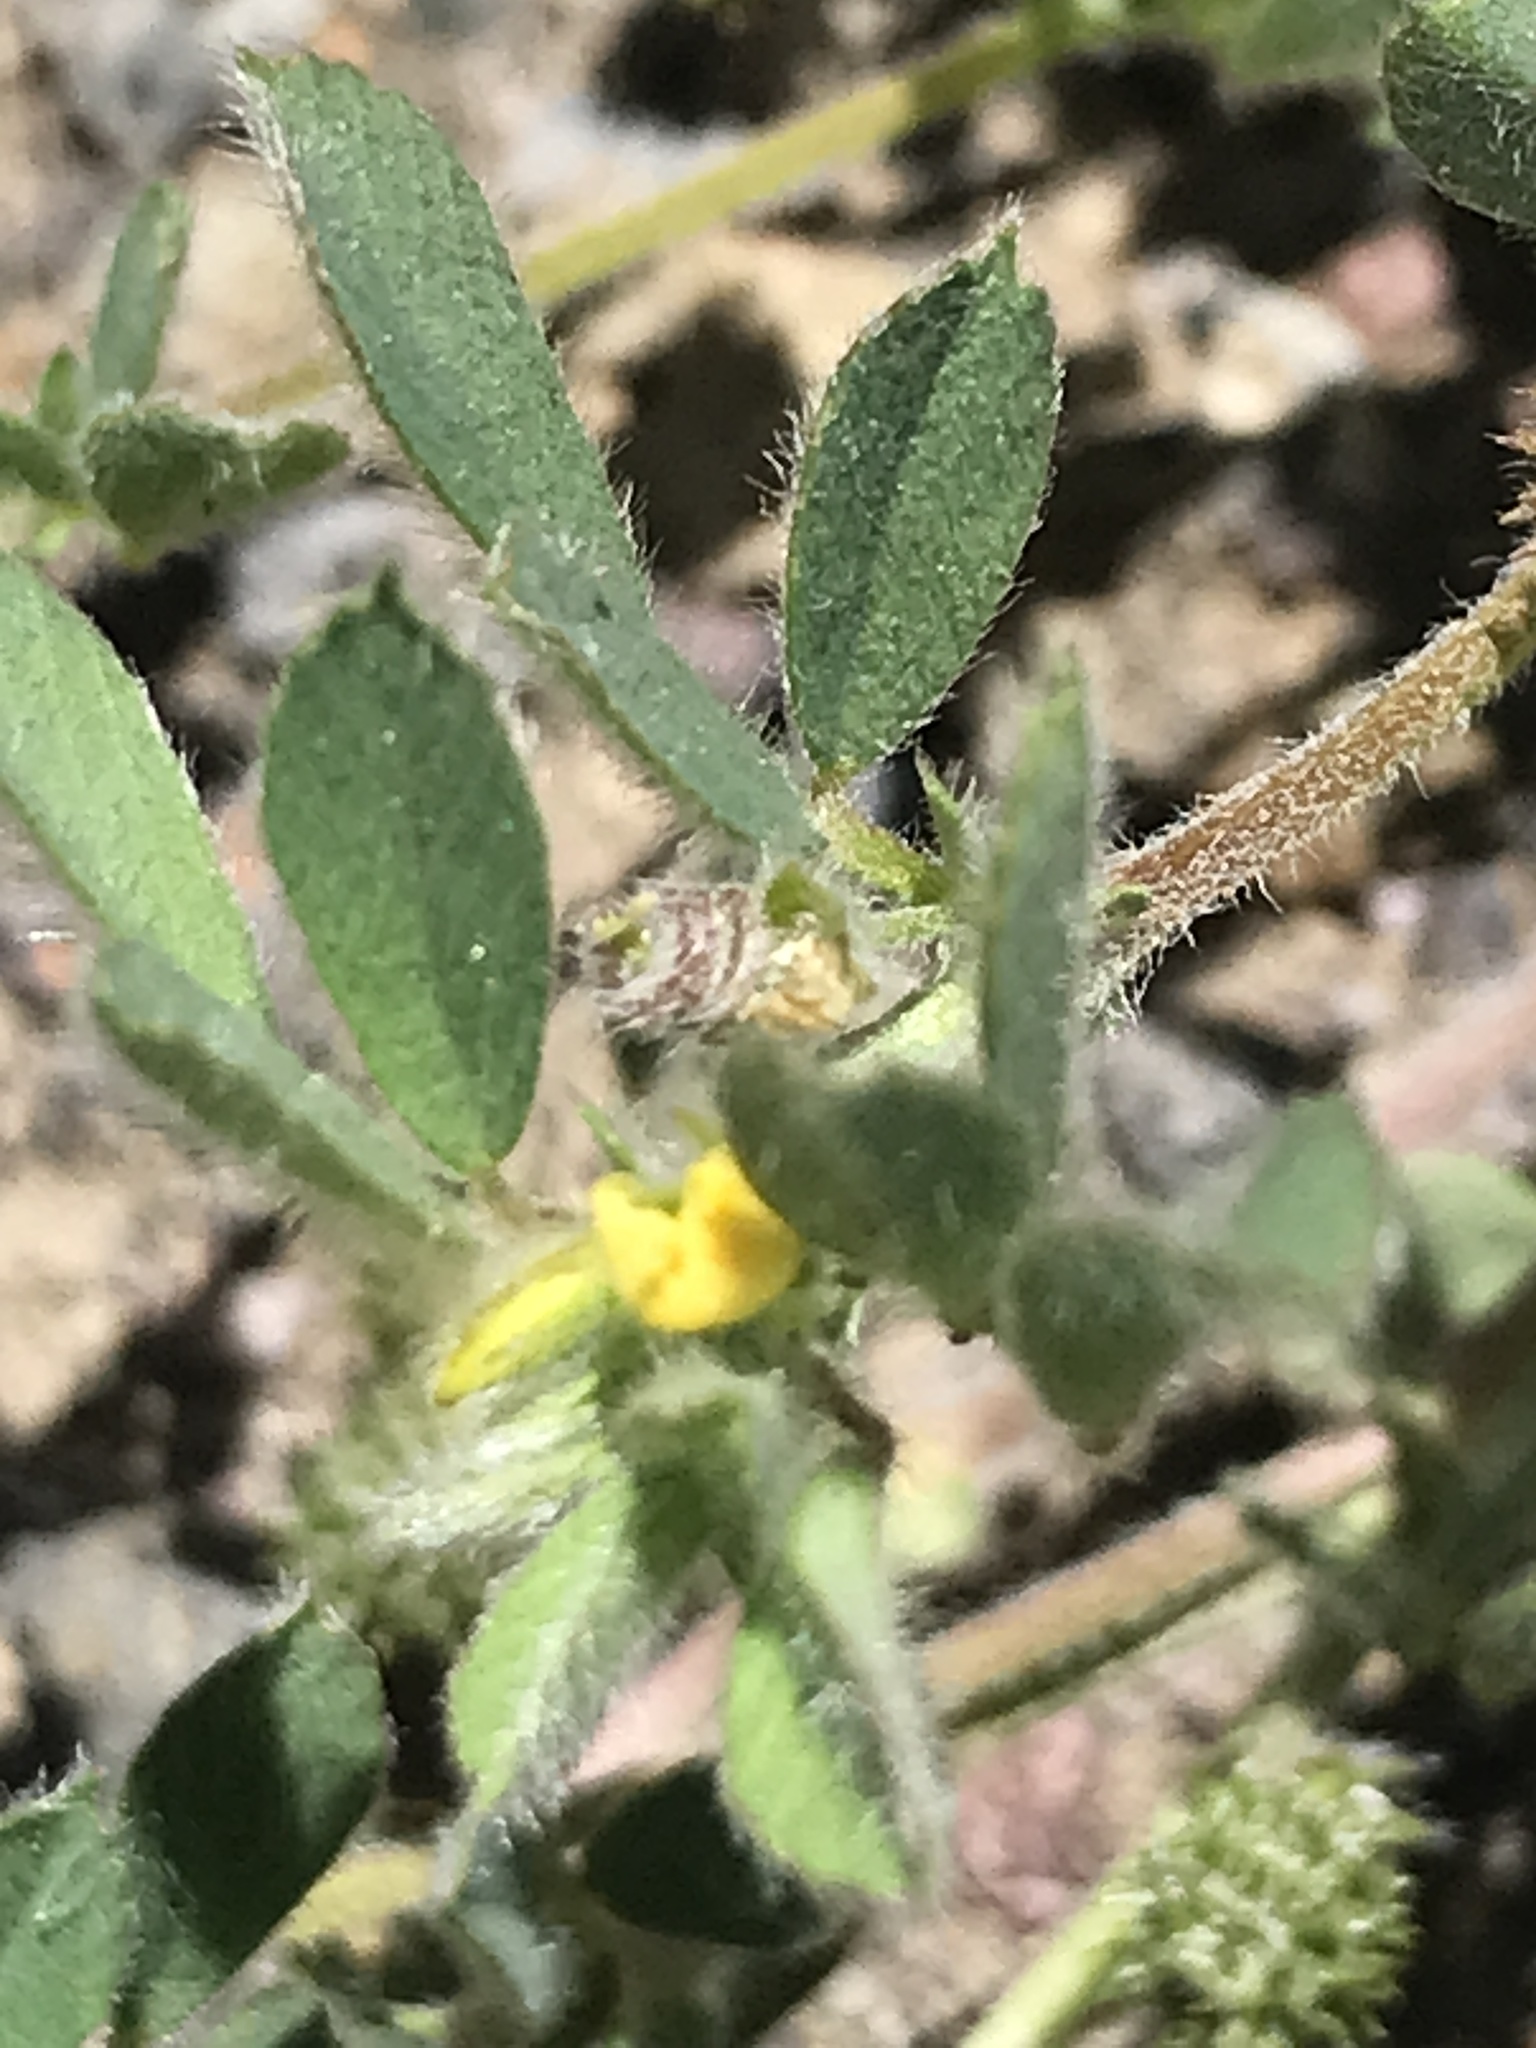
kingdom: Plantae
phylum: Tracheophyta
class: Magnoliopsida
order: Fabales
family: Fabaceae
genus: Medicago
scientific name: Medicago minima
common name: Little bur-clover
